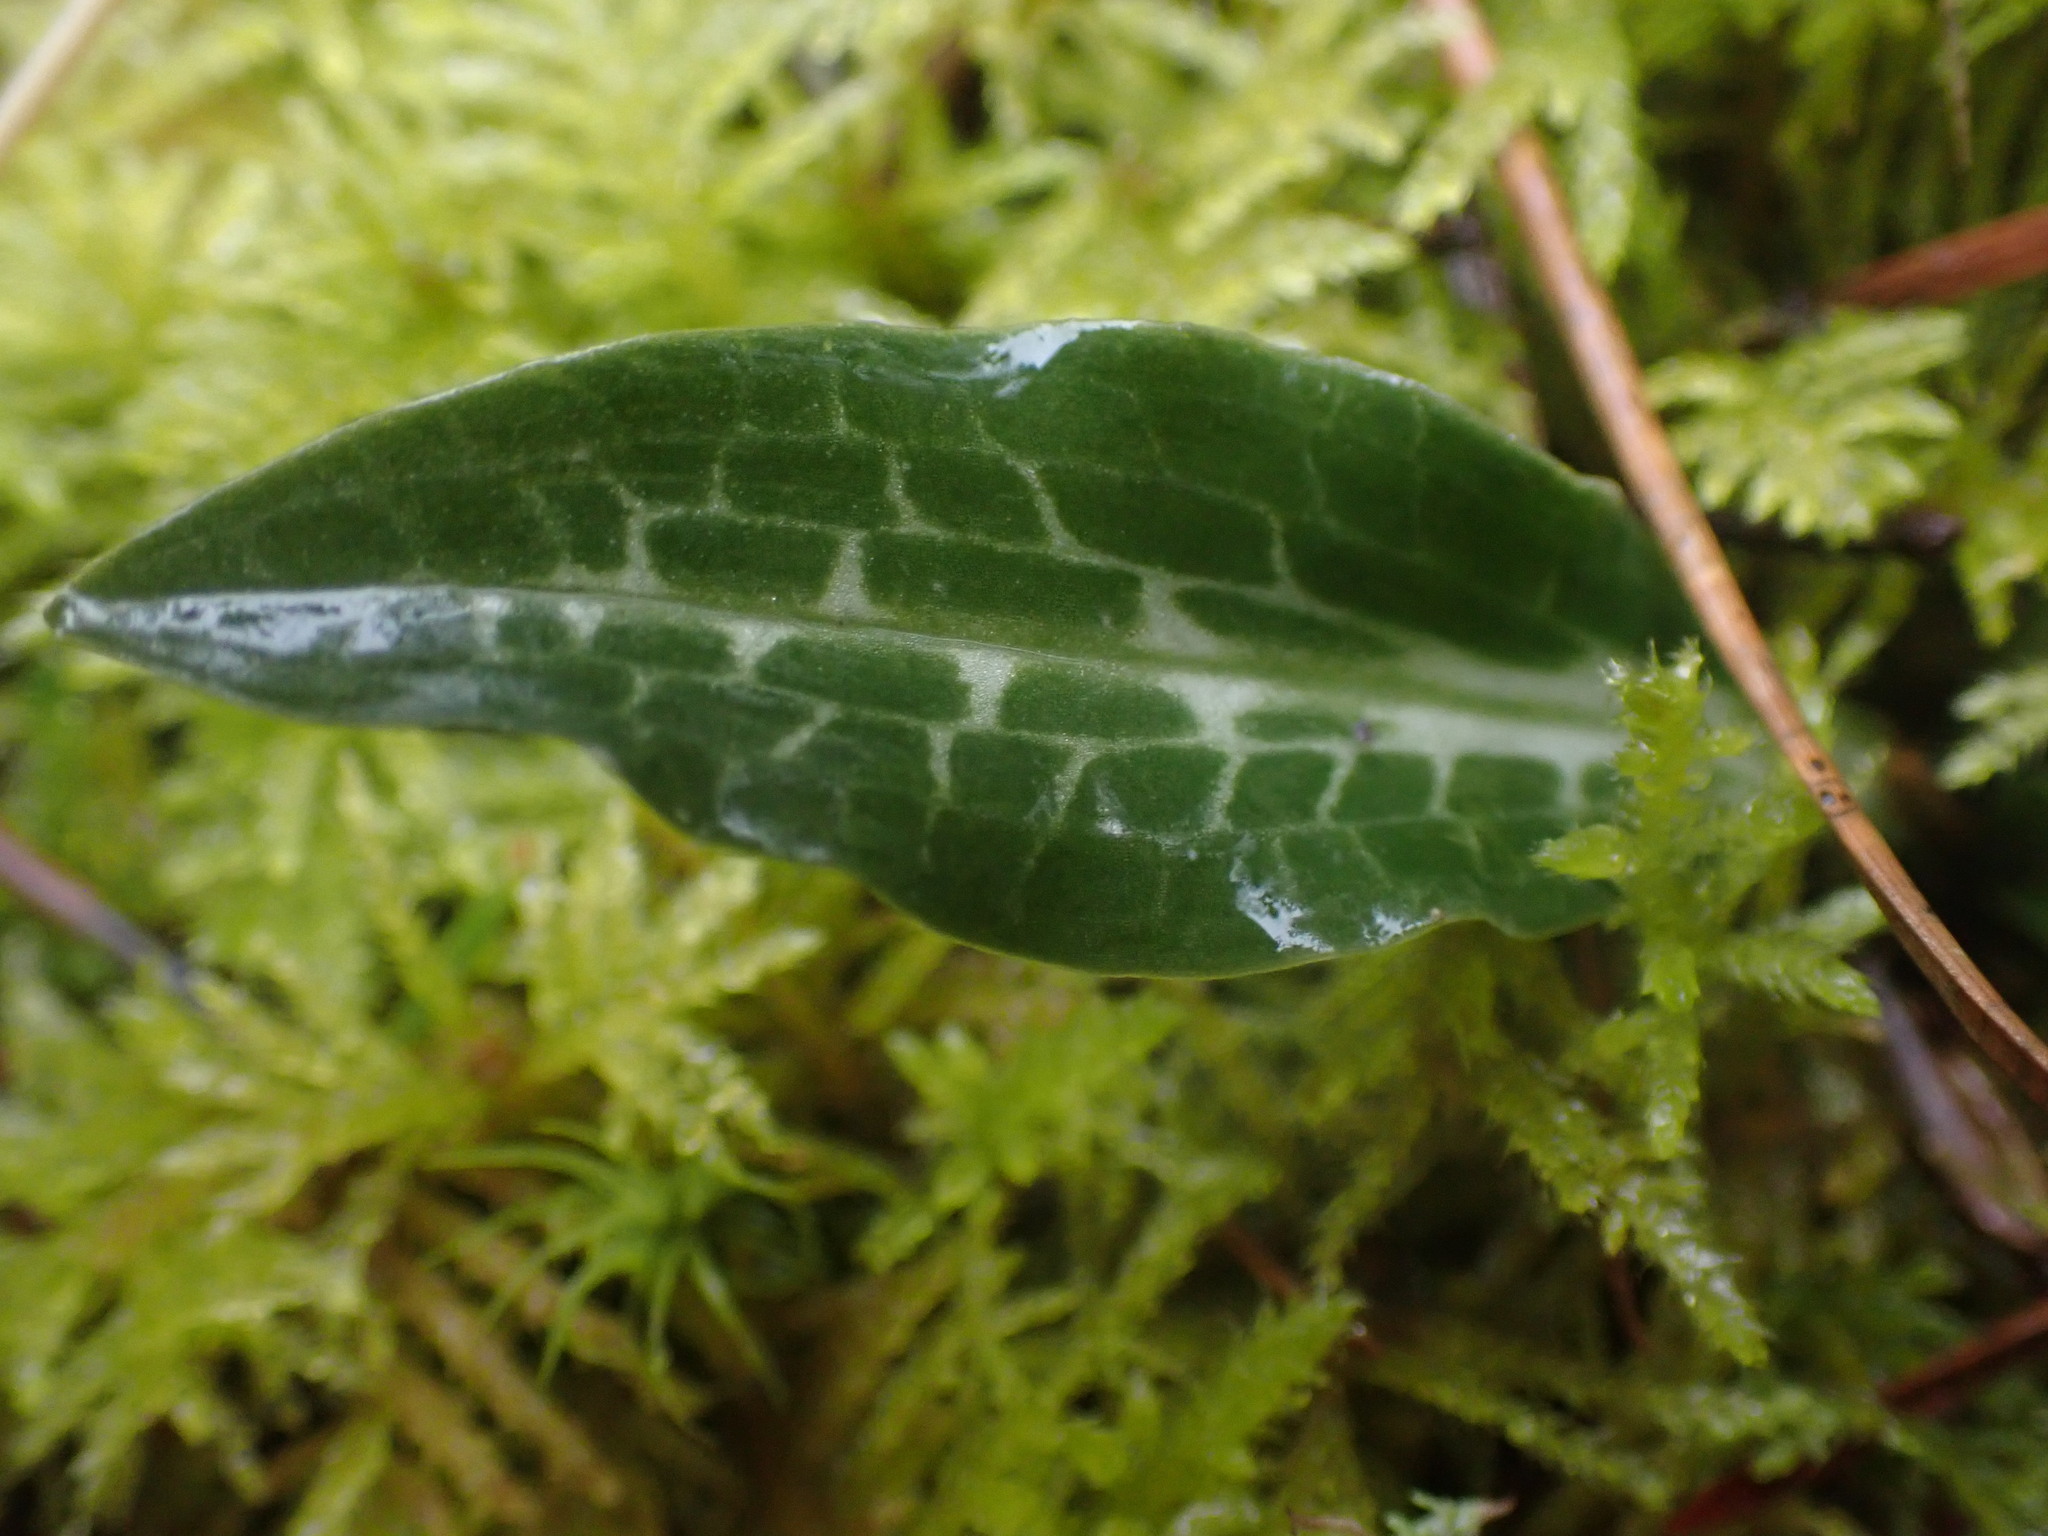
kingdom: Plantae
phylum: Tracheophyta
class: Liliopsida
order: Asparagales
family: Orchidaceae
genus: Goodyera
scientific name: Goodyera oblongifolia
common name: Giant rattlesnake-plantain
